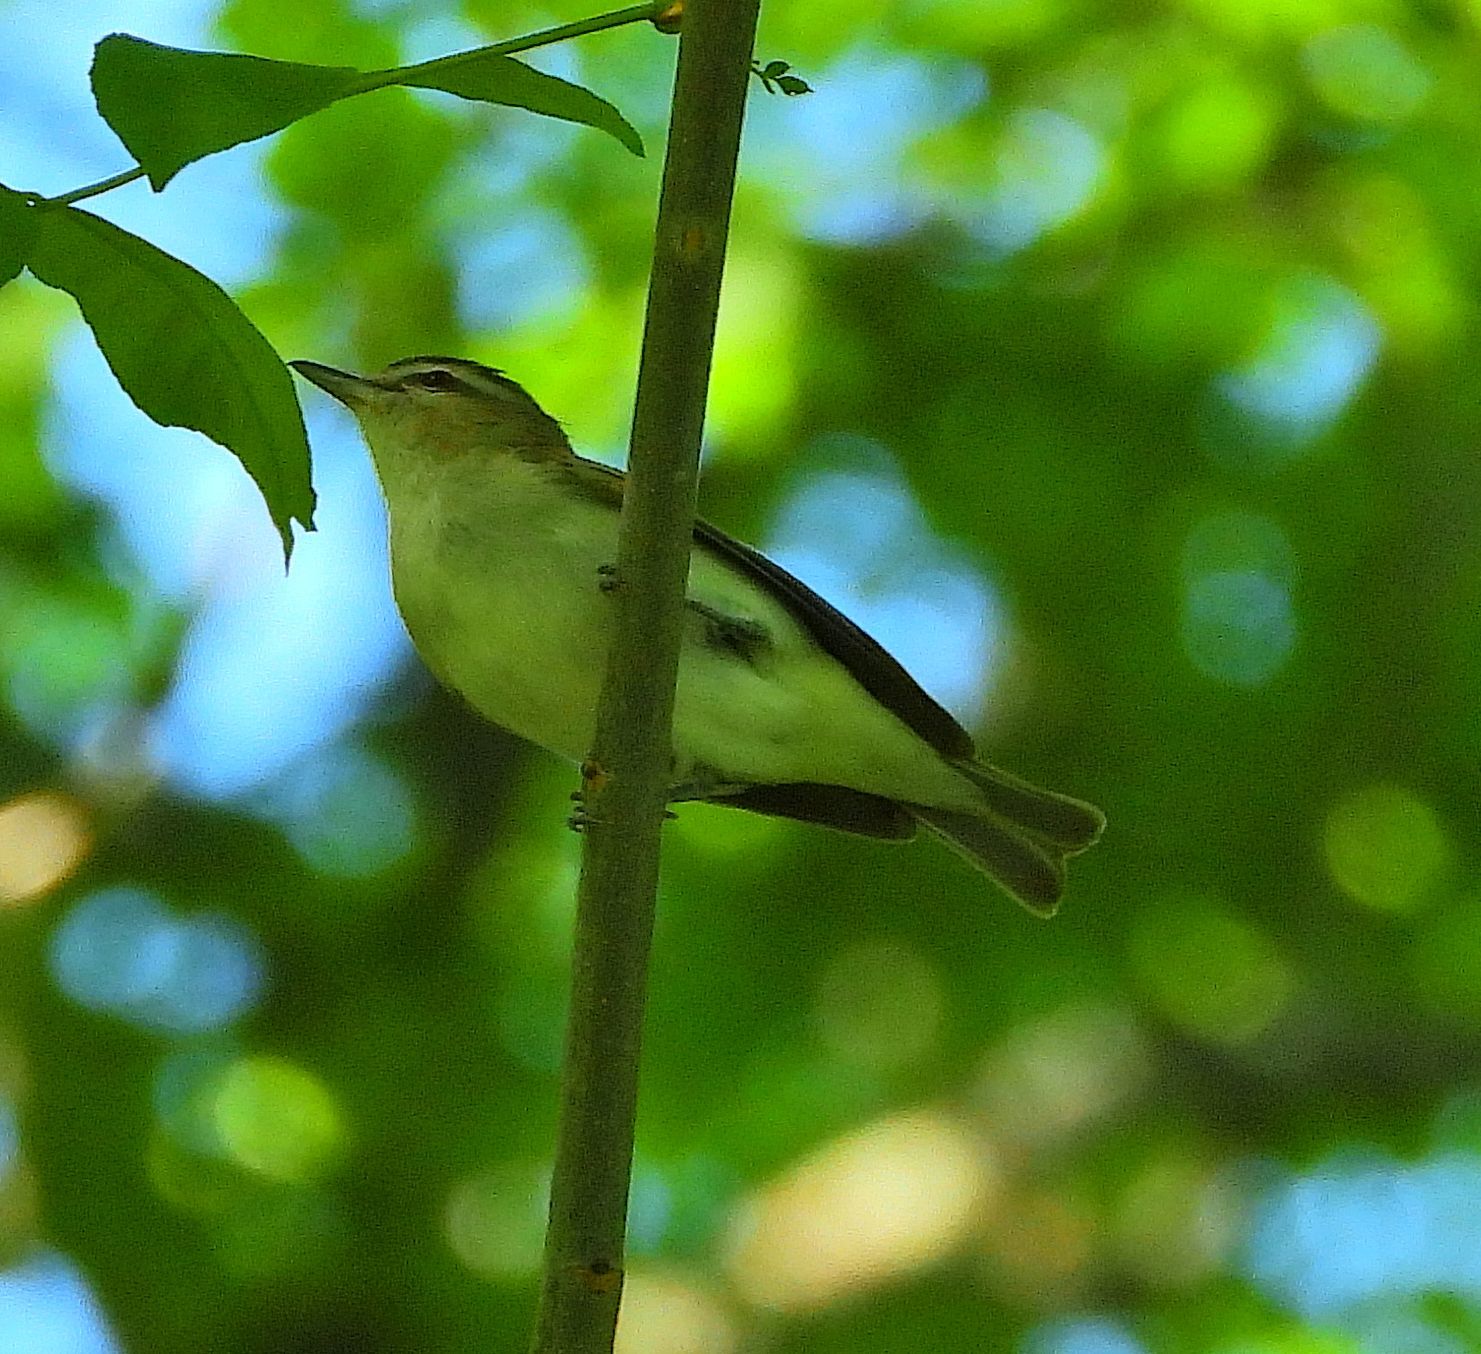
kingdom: Animalia
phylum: Chordata
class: Aves
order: Passeriformes
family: Vireonidae
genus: Vireo
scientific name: Vireo olivaceus
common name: Red-eyed vireo
